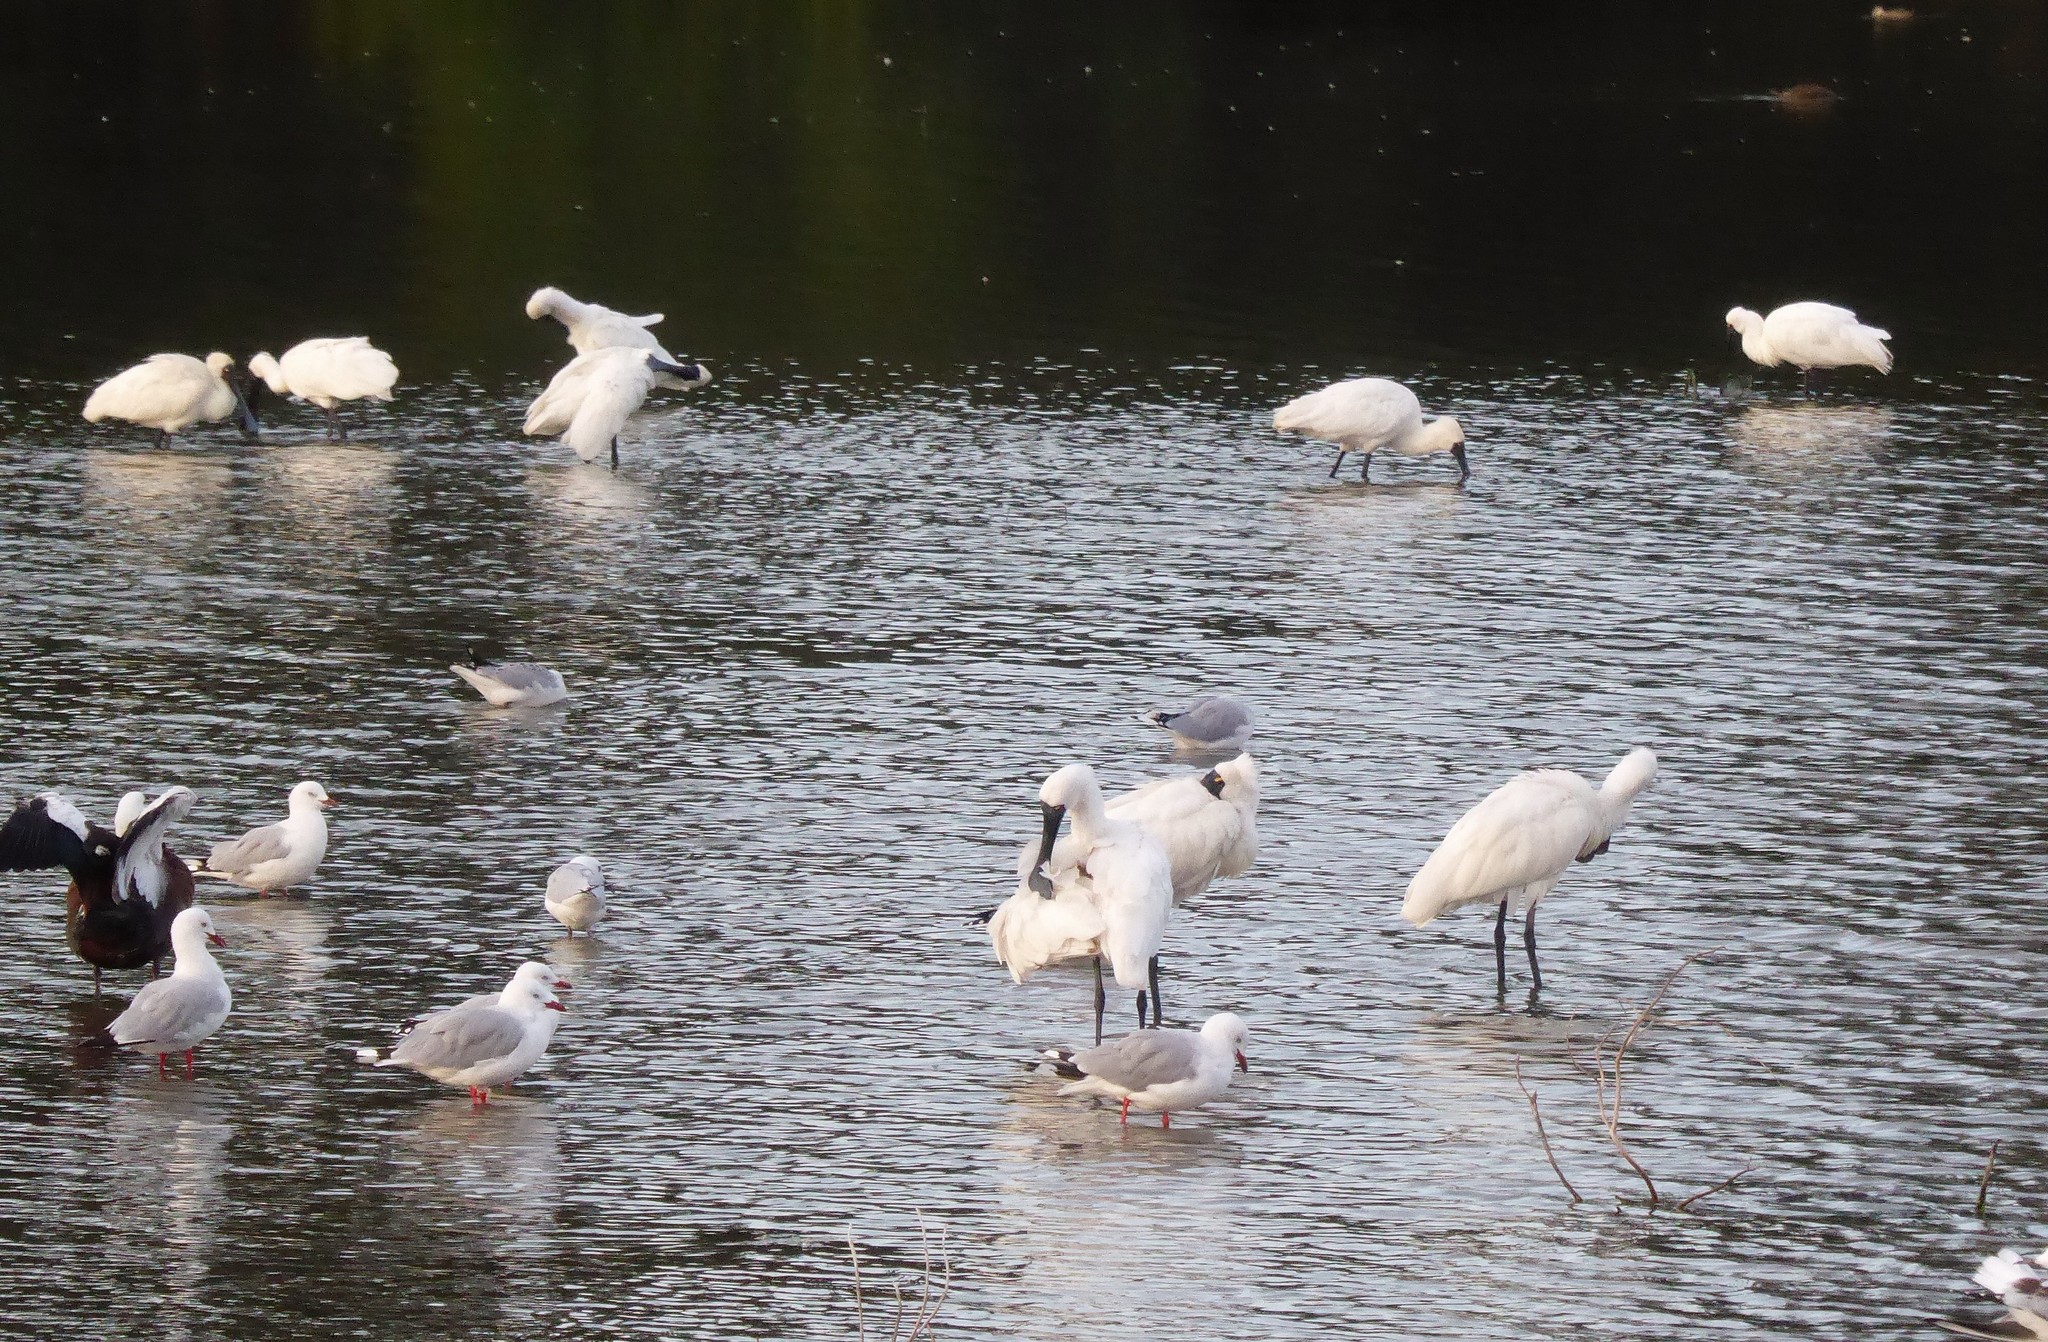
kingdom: Animalia
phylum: Chordata
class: Aves
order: Pelecaniformes
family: Threskiornithidae
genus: Platalea
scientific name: Platalea regia
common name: Royal spoonbill
